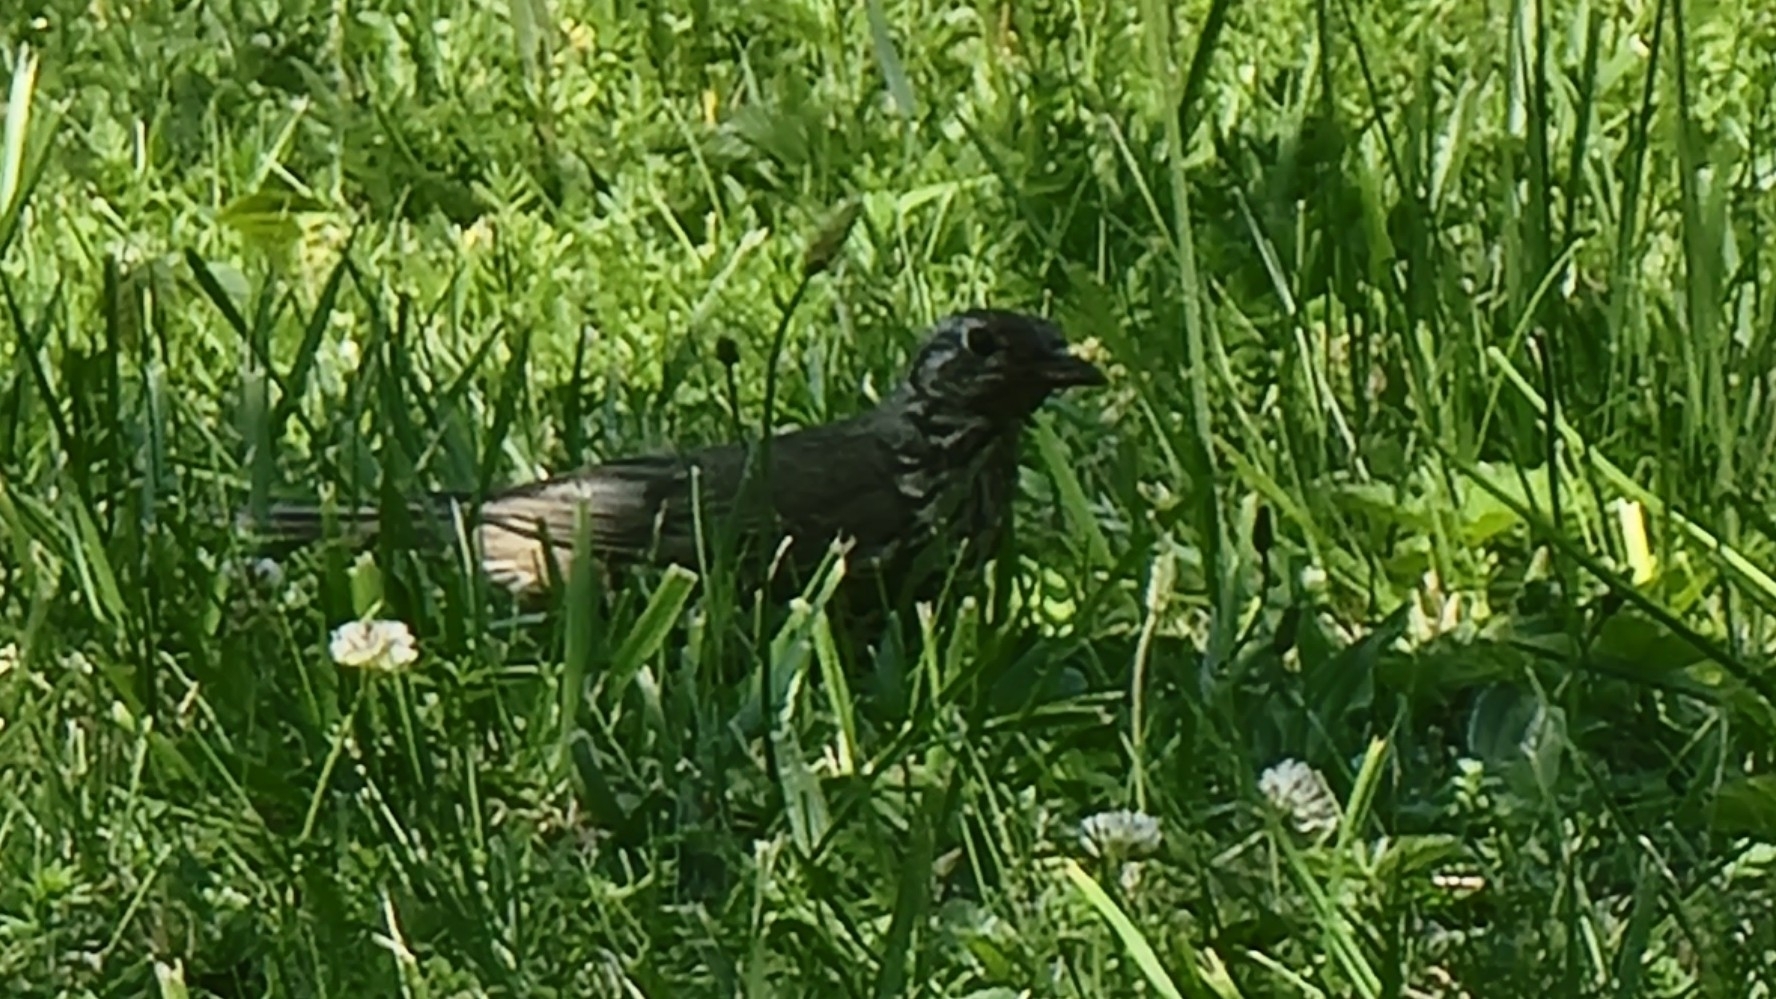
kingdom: Animalia
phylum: Chordata
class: Aves
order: Passeriformes
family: Turdidae
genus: Turdus
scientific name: Turdus viscivorus
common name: Mistle thrush
